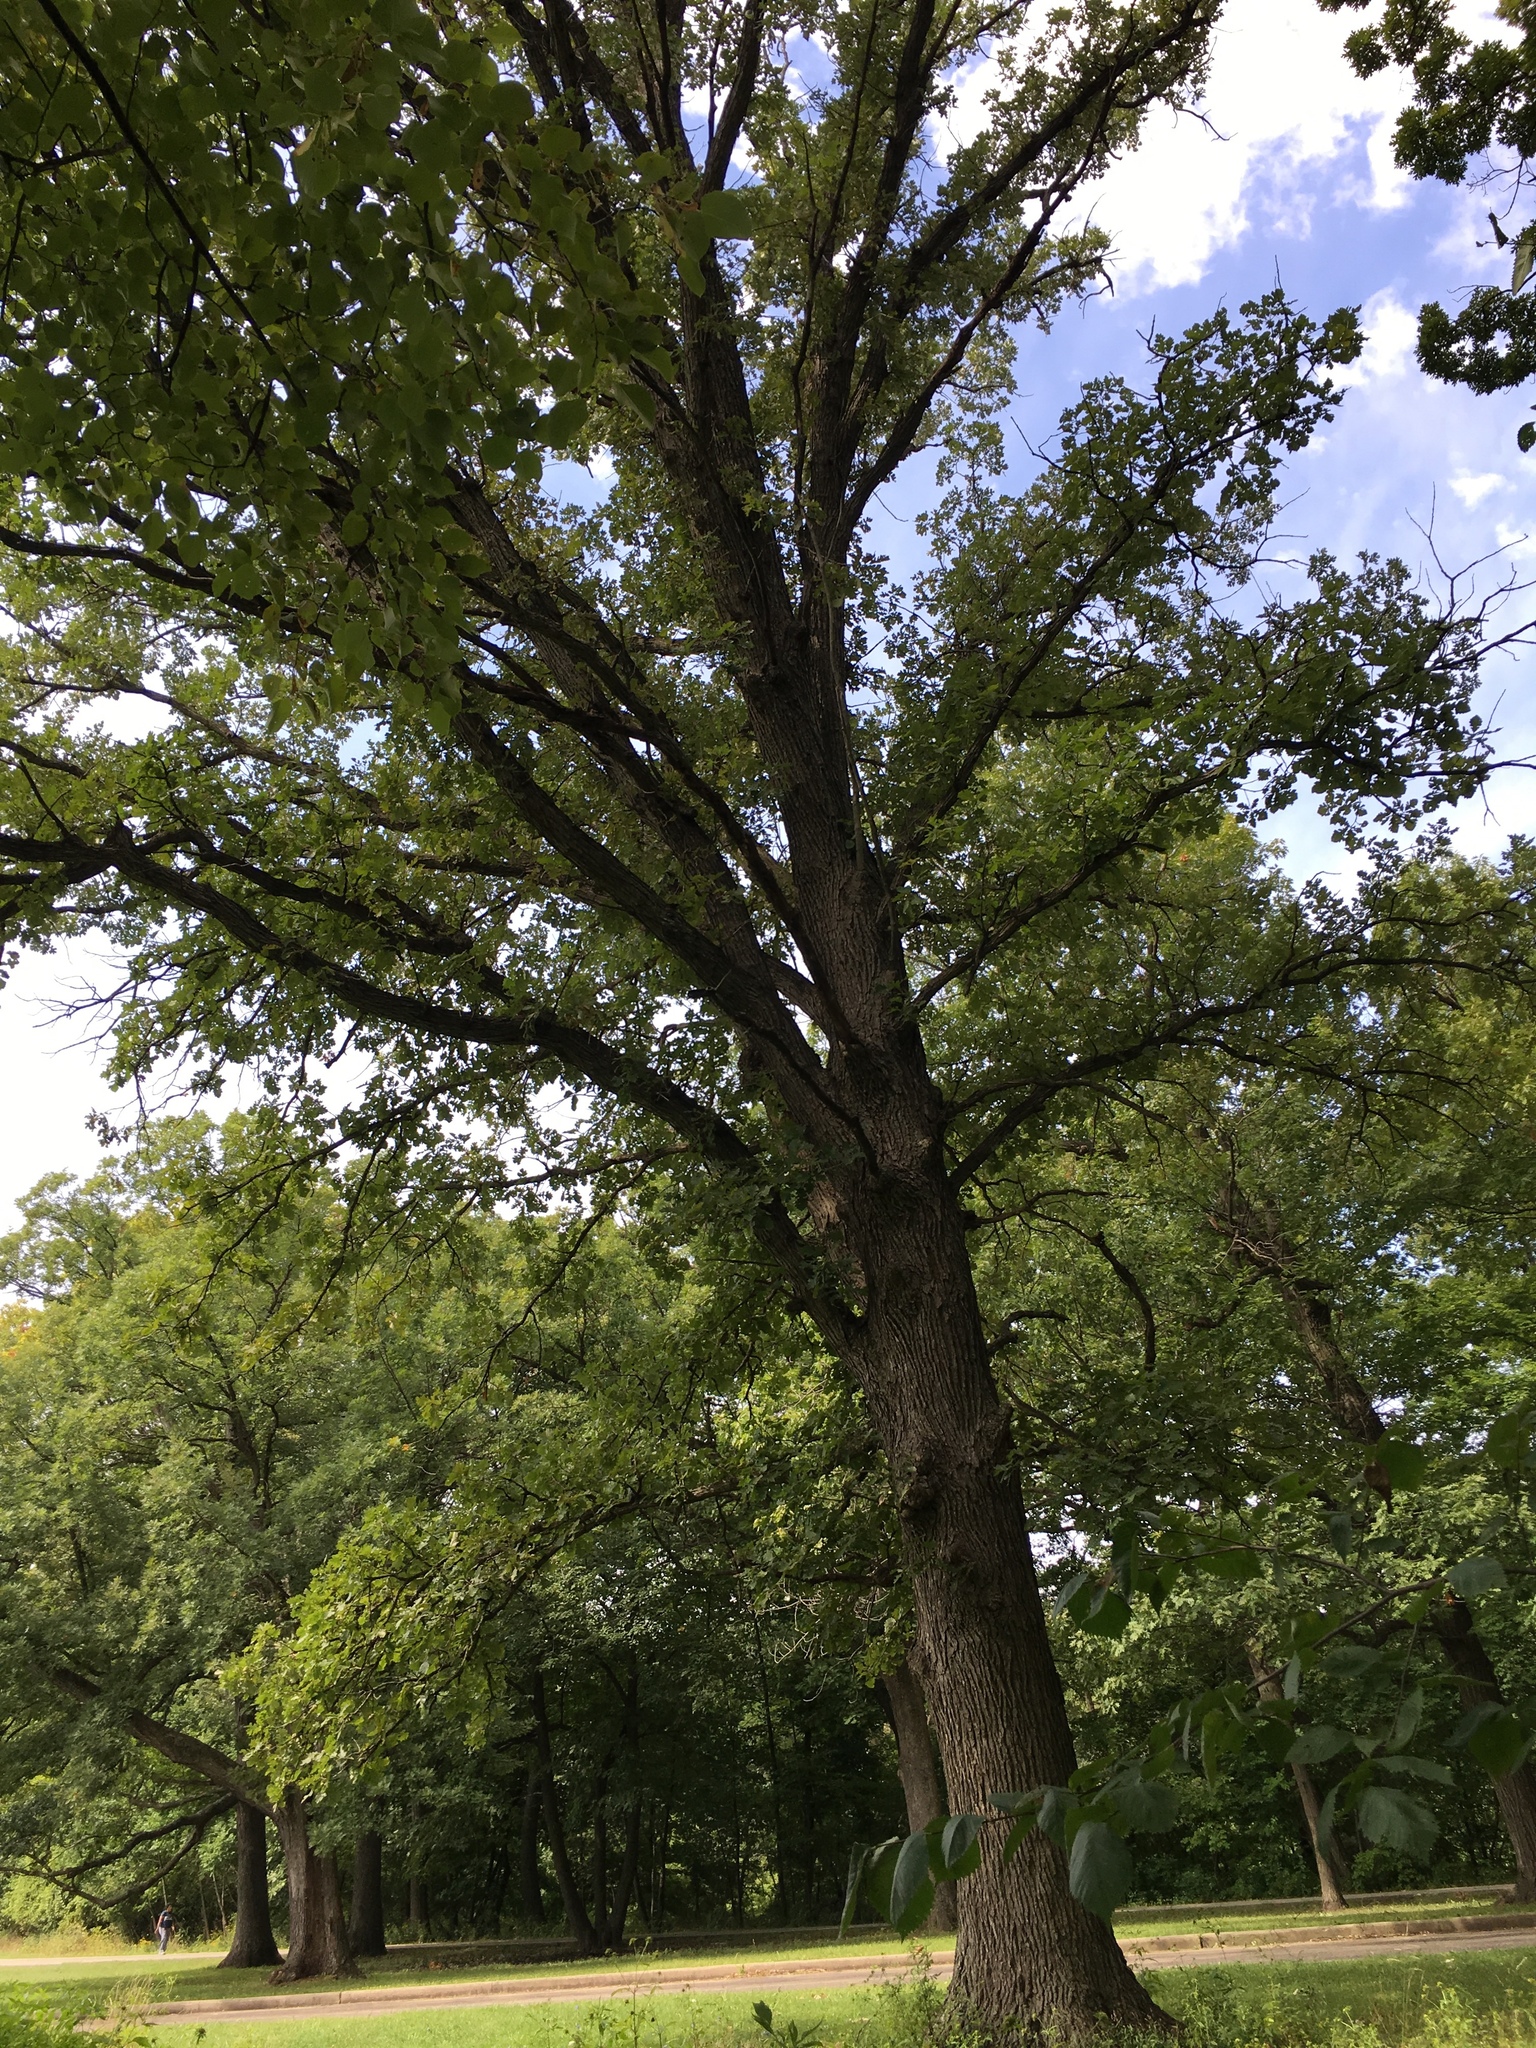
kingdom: Plantae
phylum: Tracheophyta
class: Magnoliopsida
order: Fagales
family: Fagaceae
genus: Quercus
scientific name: Quercus macrocarpa
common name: Bur oak
